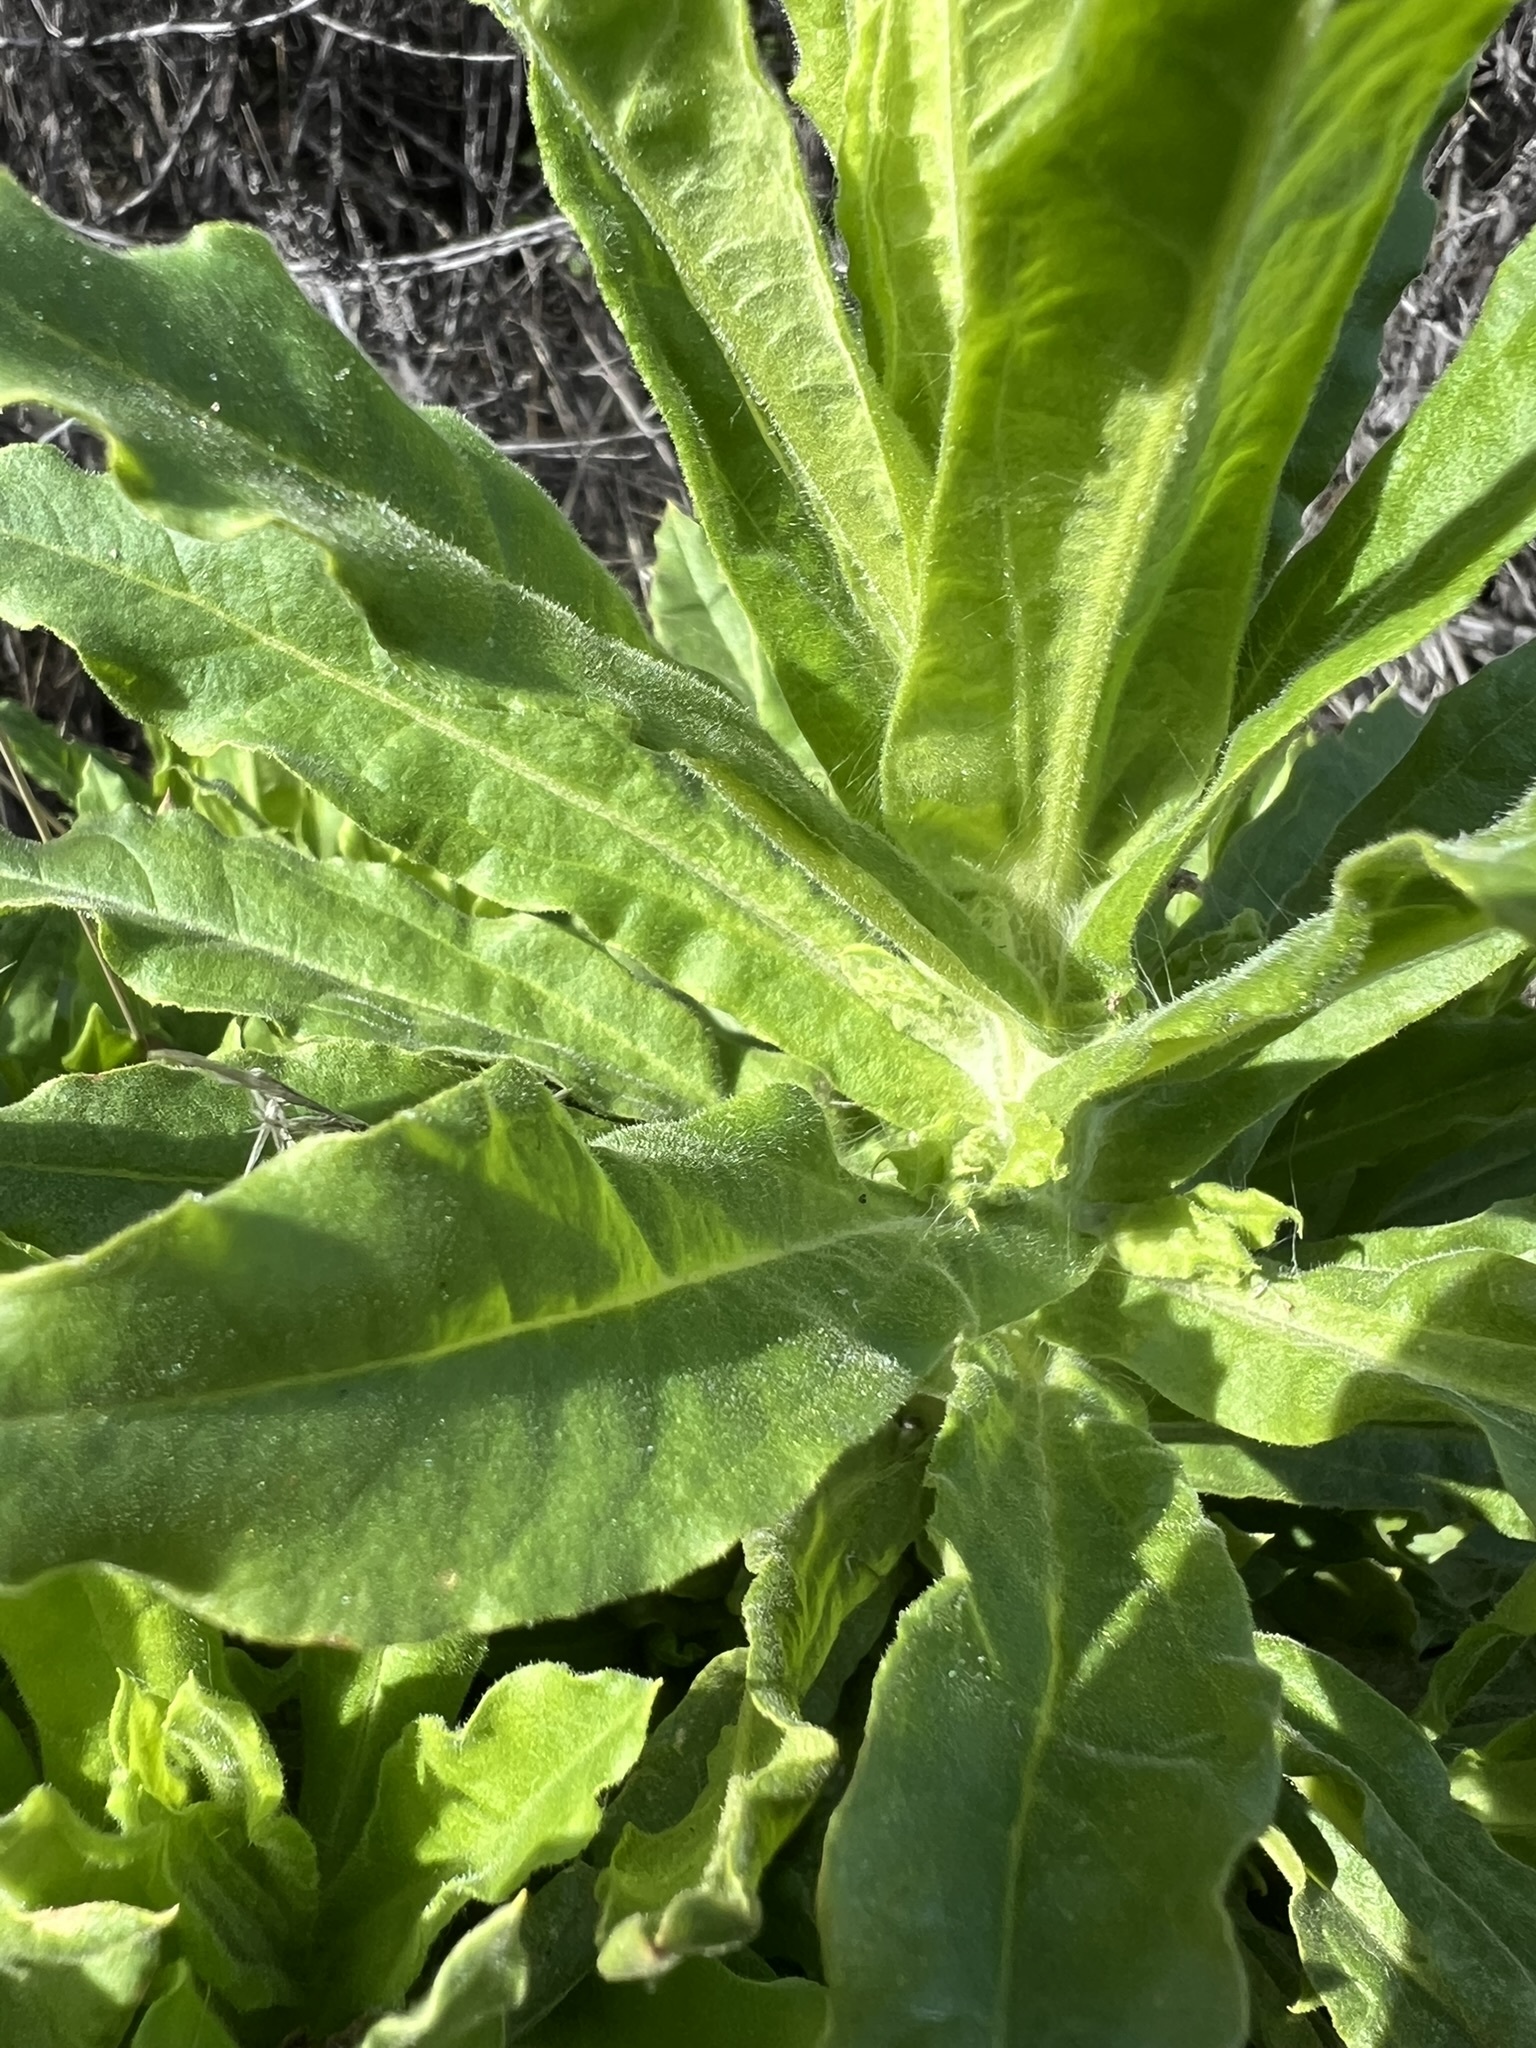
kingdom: Plantae
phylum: Tracheophyta
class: Magnoliopsida
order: Asterales
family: Asteraceae
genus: Pseudognaphalium
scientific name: Pseudognaphalium californicum
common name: California rabbit-tobacco
